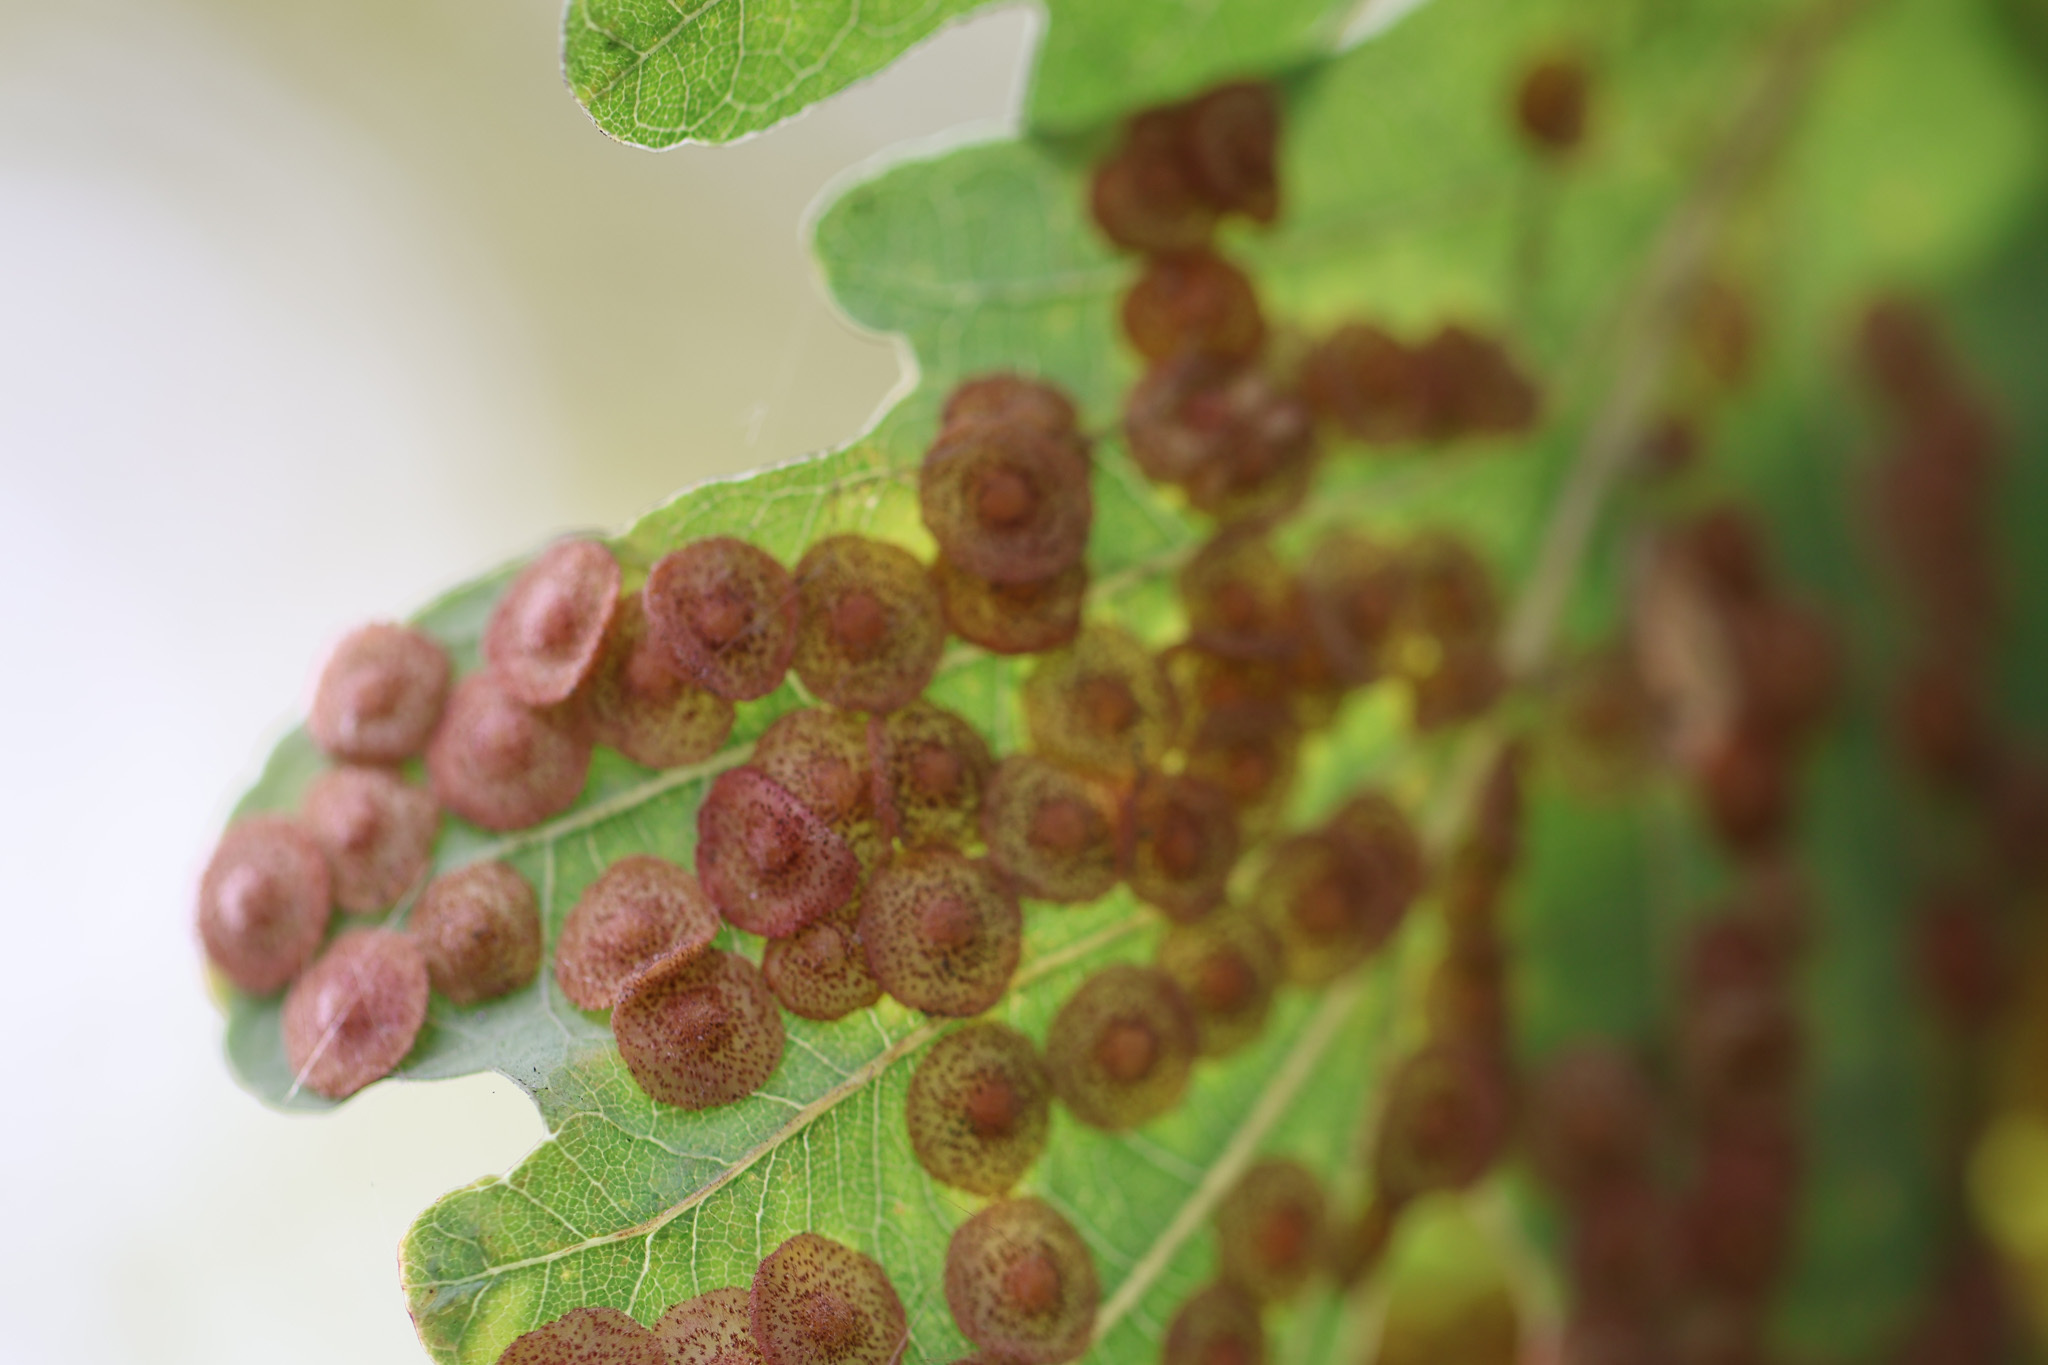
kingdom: Animalia
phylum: Arthropoda
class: Insecta
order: Hymenoptera
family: Cynipidae
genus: Neuroterus
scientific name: Neuroterus quercusbaccarum
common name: Common spangle gall
